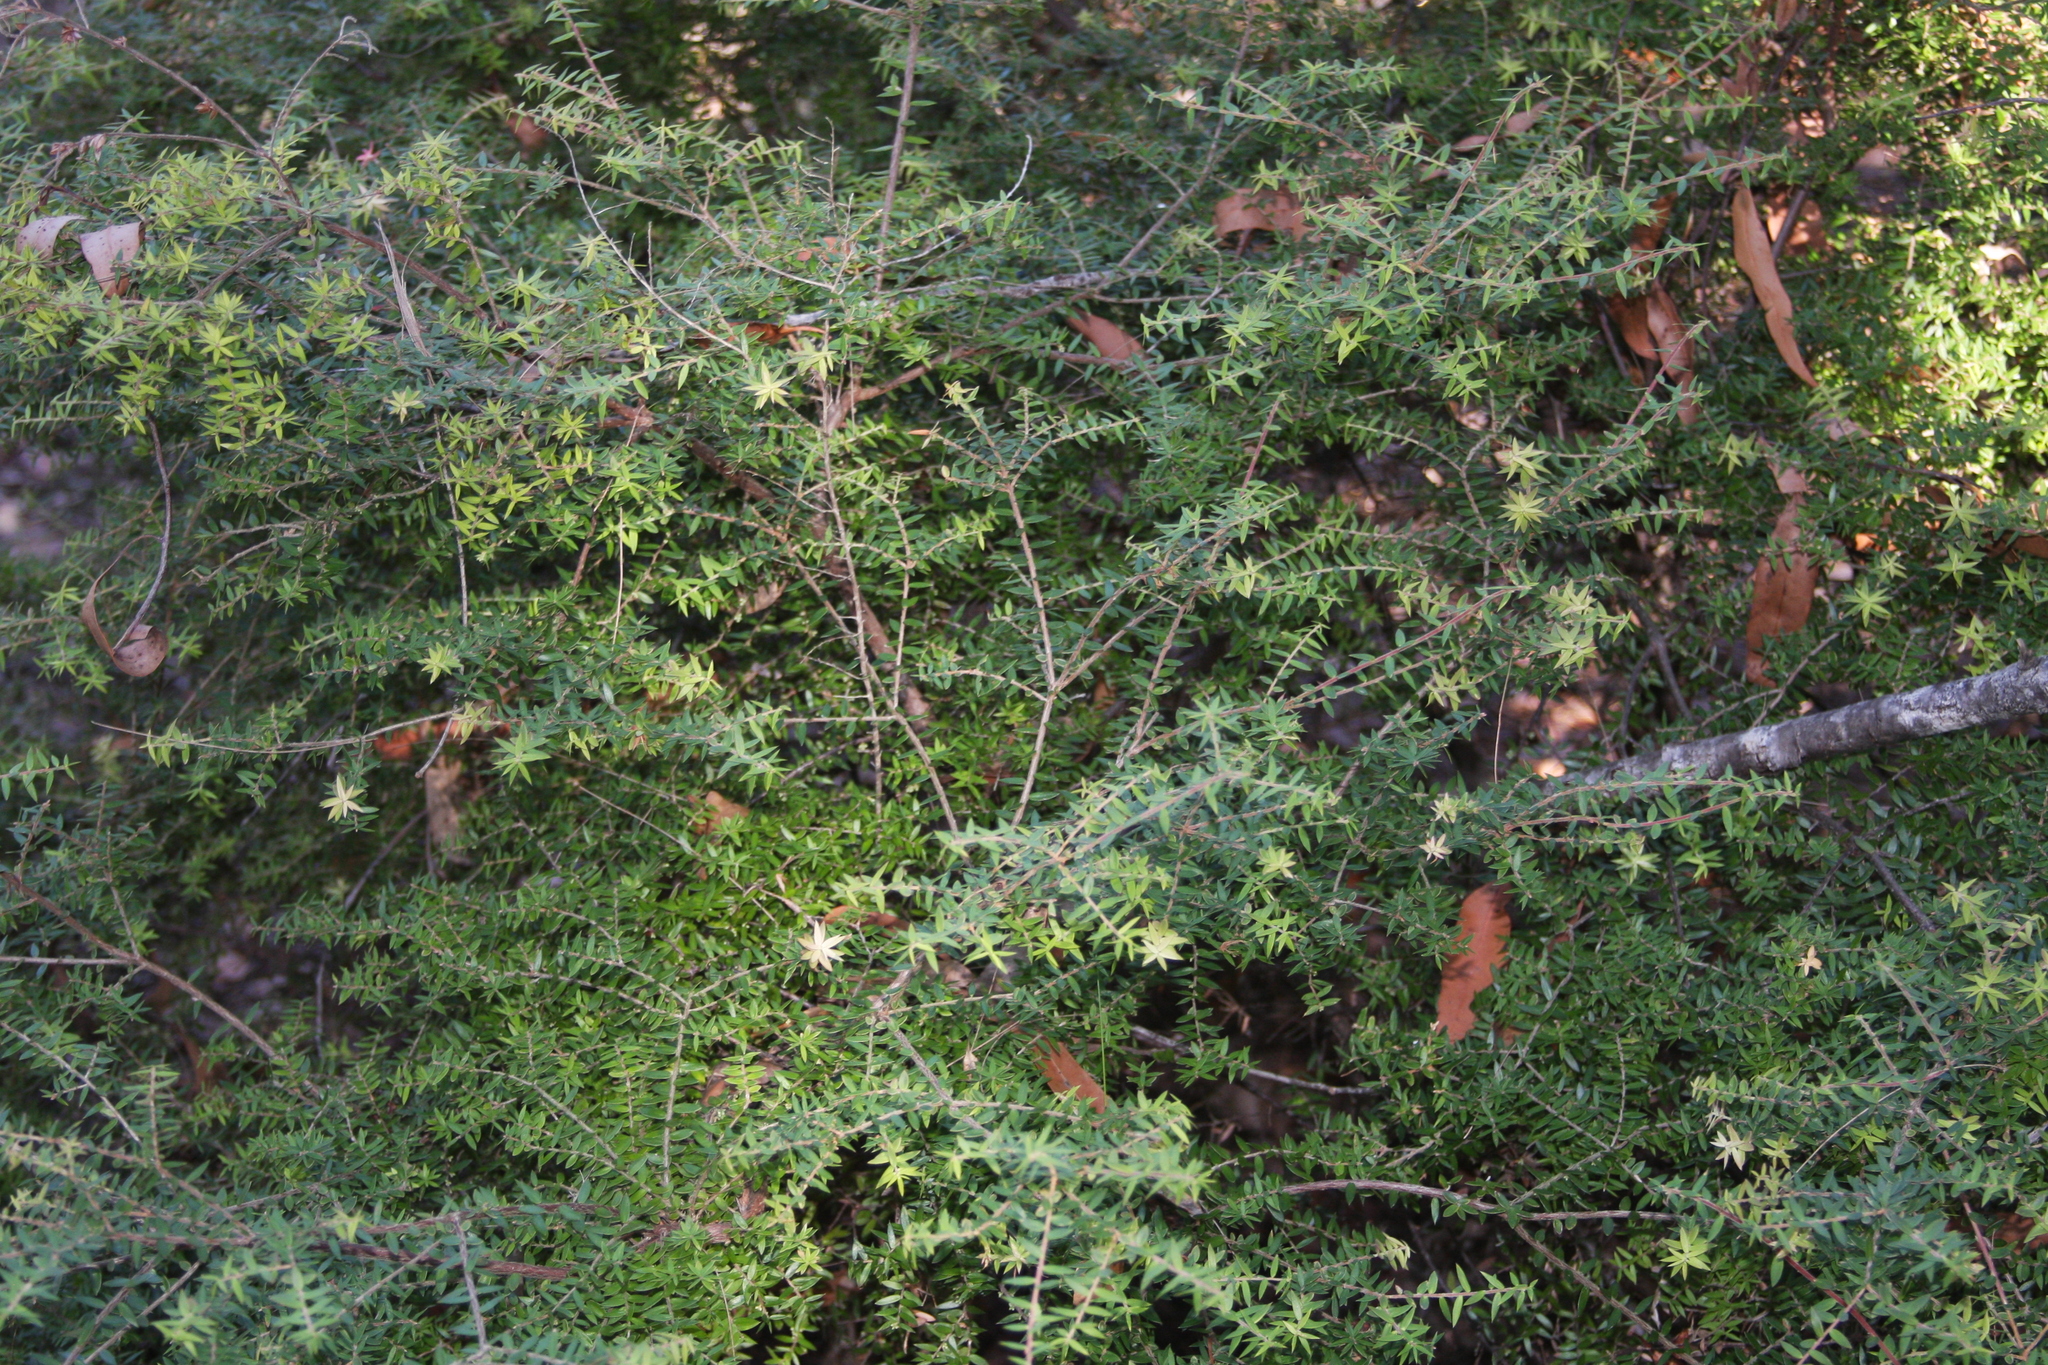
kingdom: Plantae
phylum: Tracheophyta
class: Magnoliopsida
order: Ericales
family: Ericaceae
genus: Acrotriche
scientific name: Acrotriche divaricata
